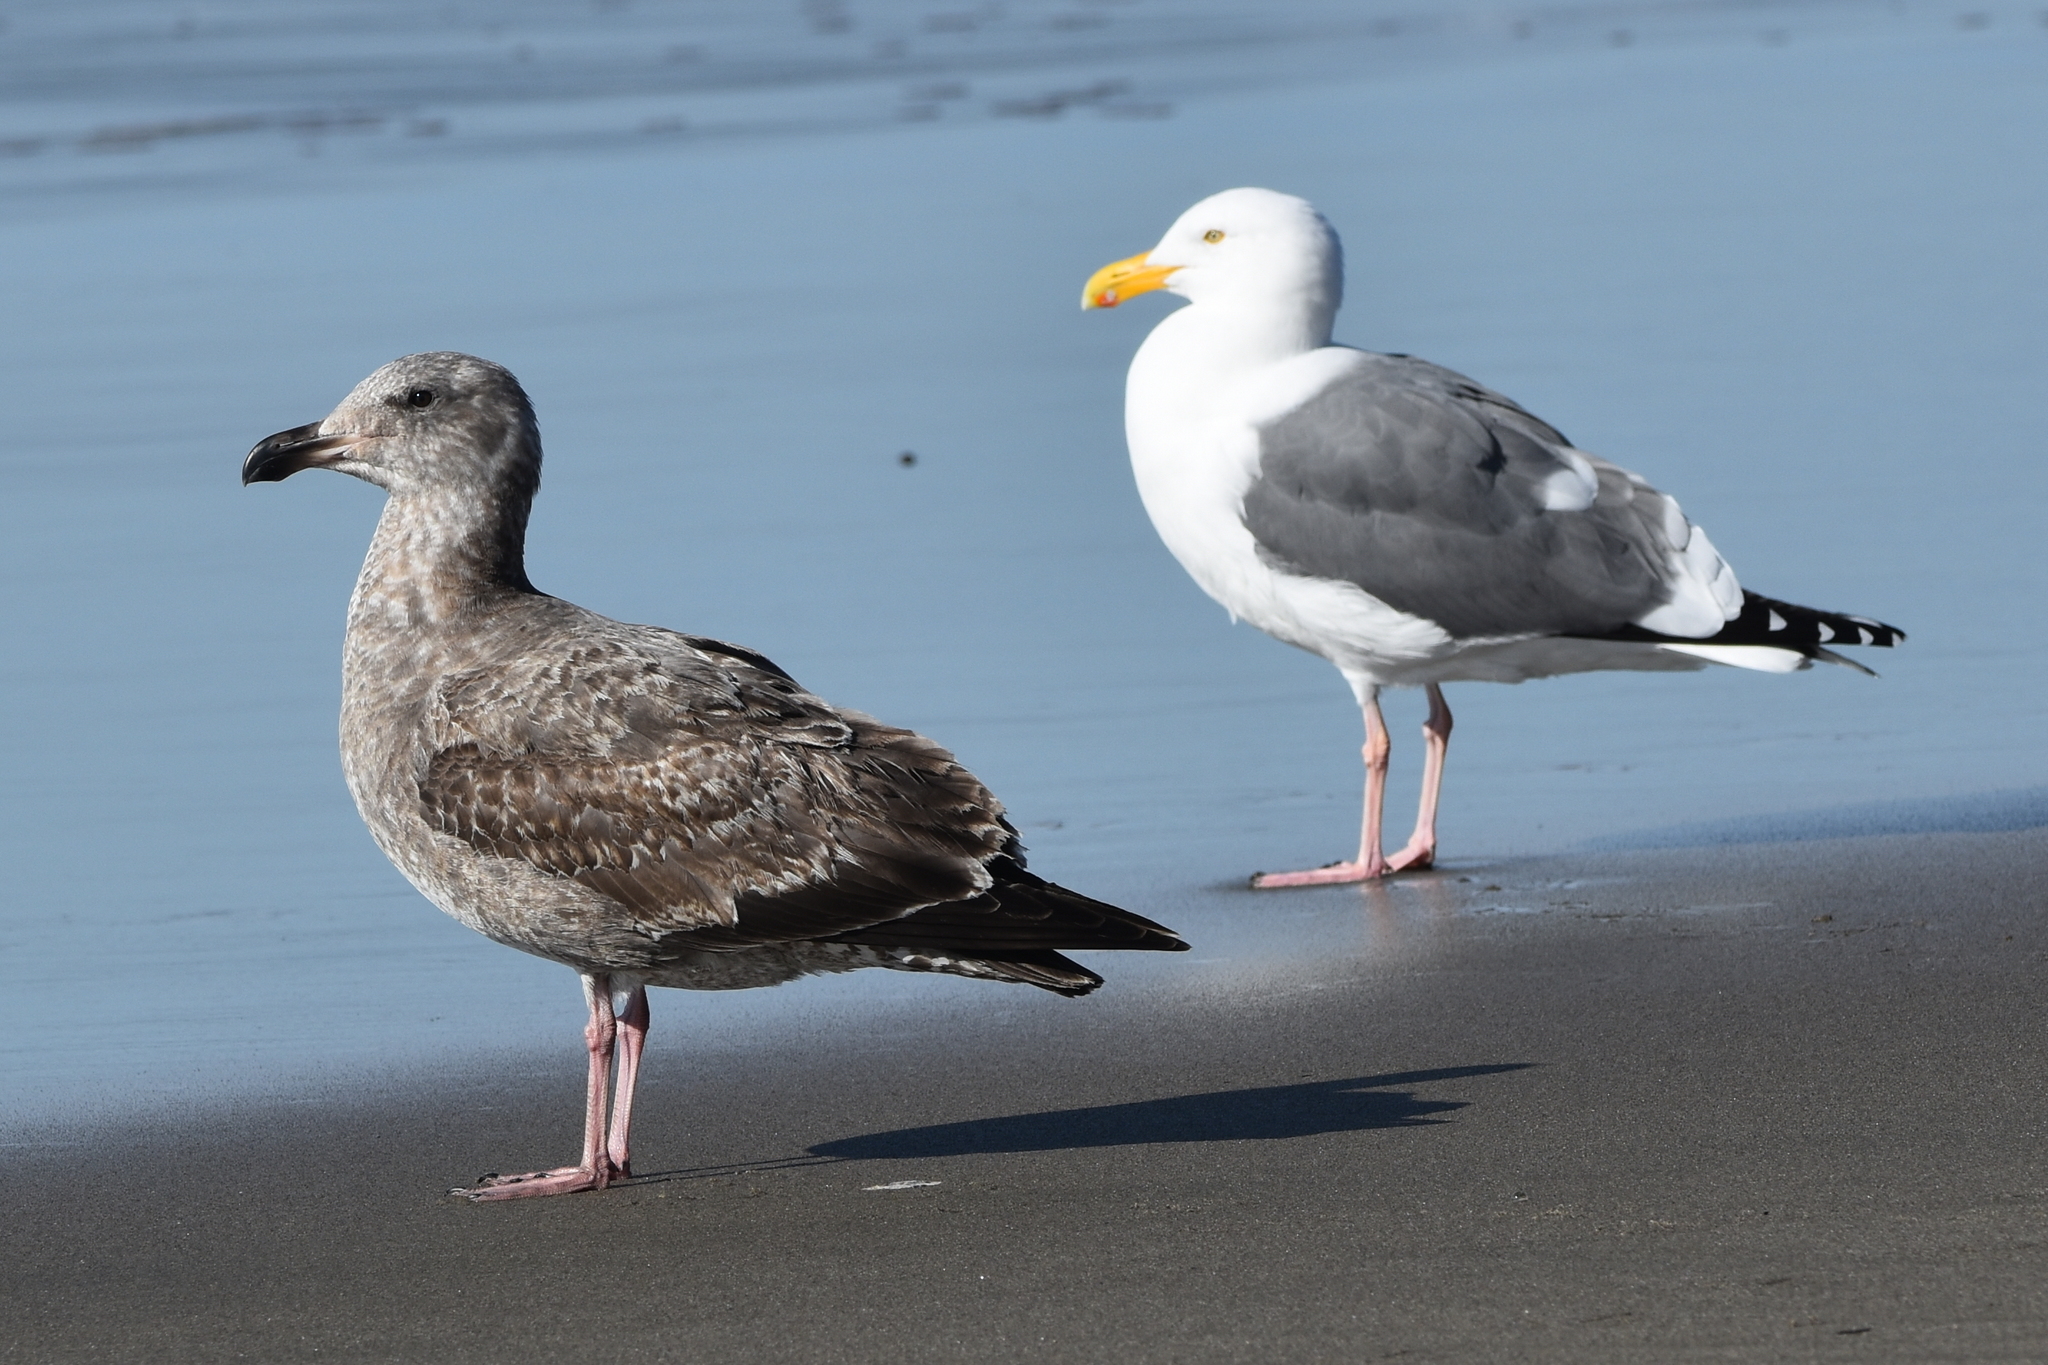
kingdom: Animalia
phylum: Chordata
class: Aves
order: Charadriiformes
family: Laridae
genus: Larus
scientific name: Larus occidentalis
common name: Western gull
